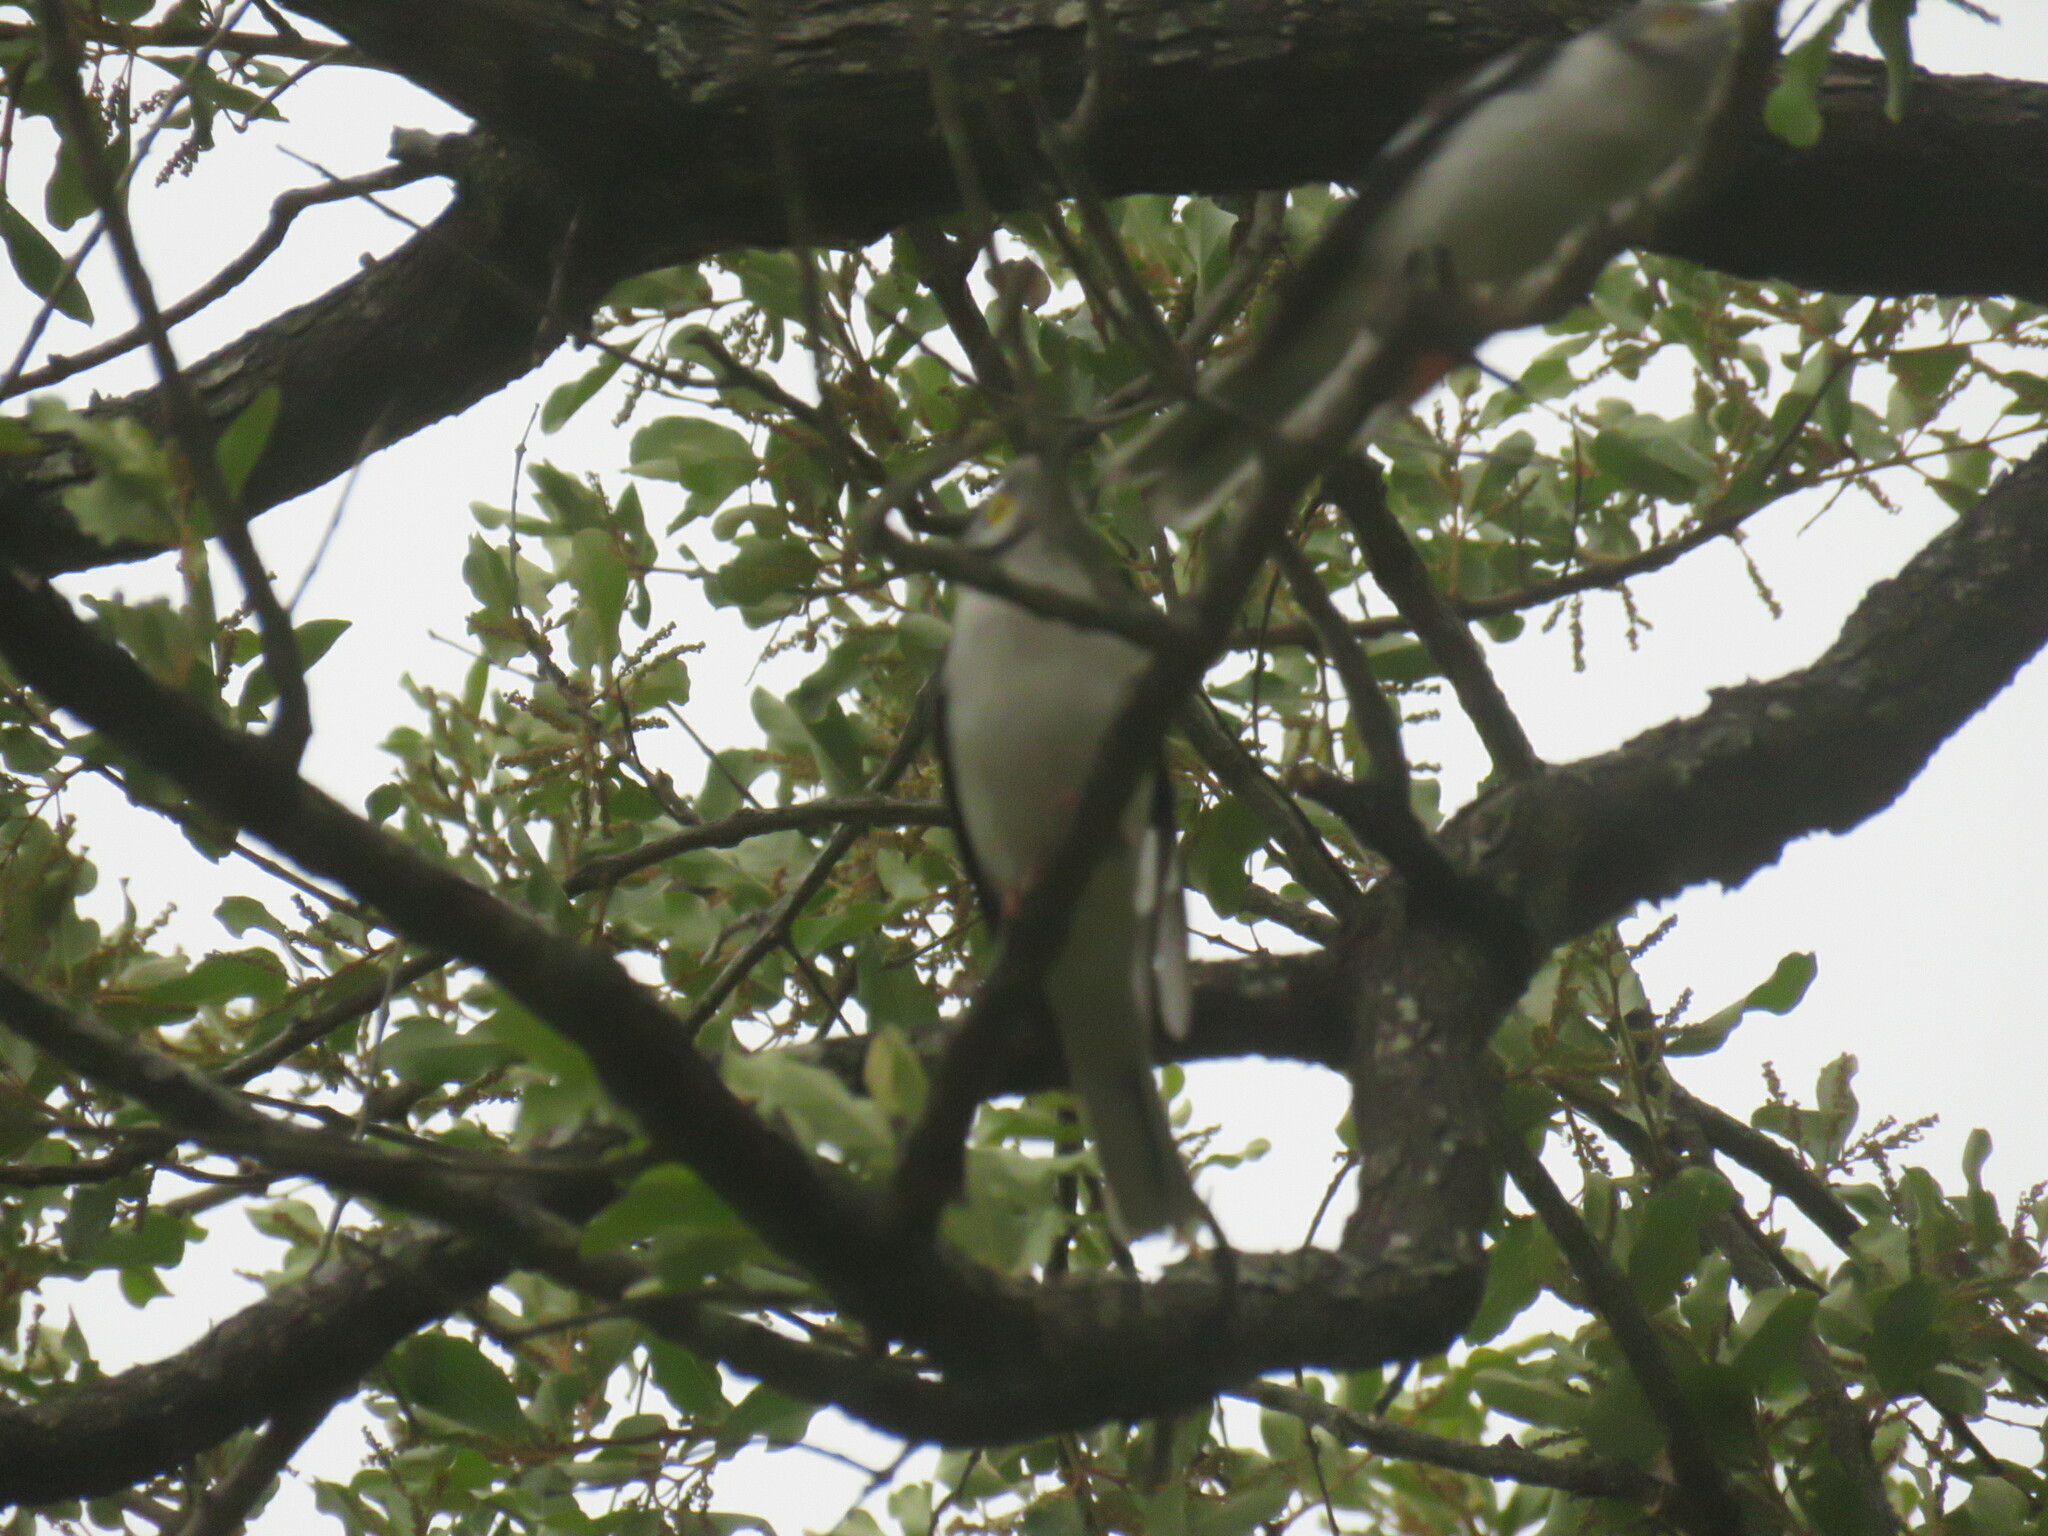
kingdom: Animalia
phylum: Chordata
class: Aves
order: Passeriformes
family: Prionopidae
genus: Prionops
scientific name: Prionops plumatus
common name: White-crested helmetshrike
